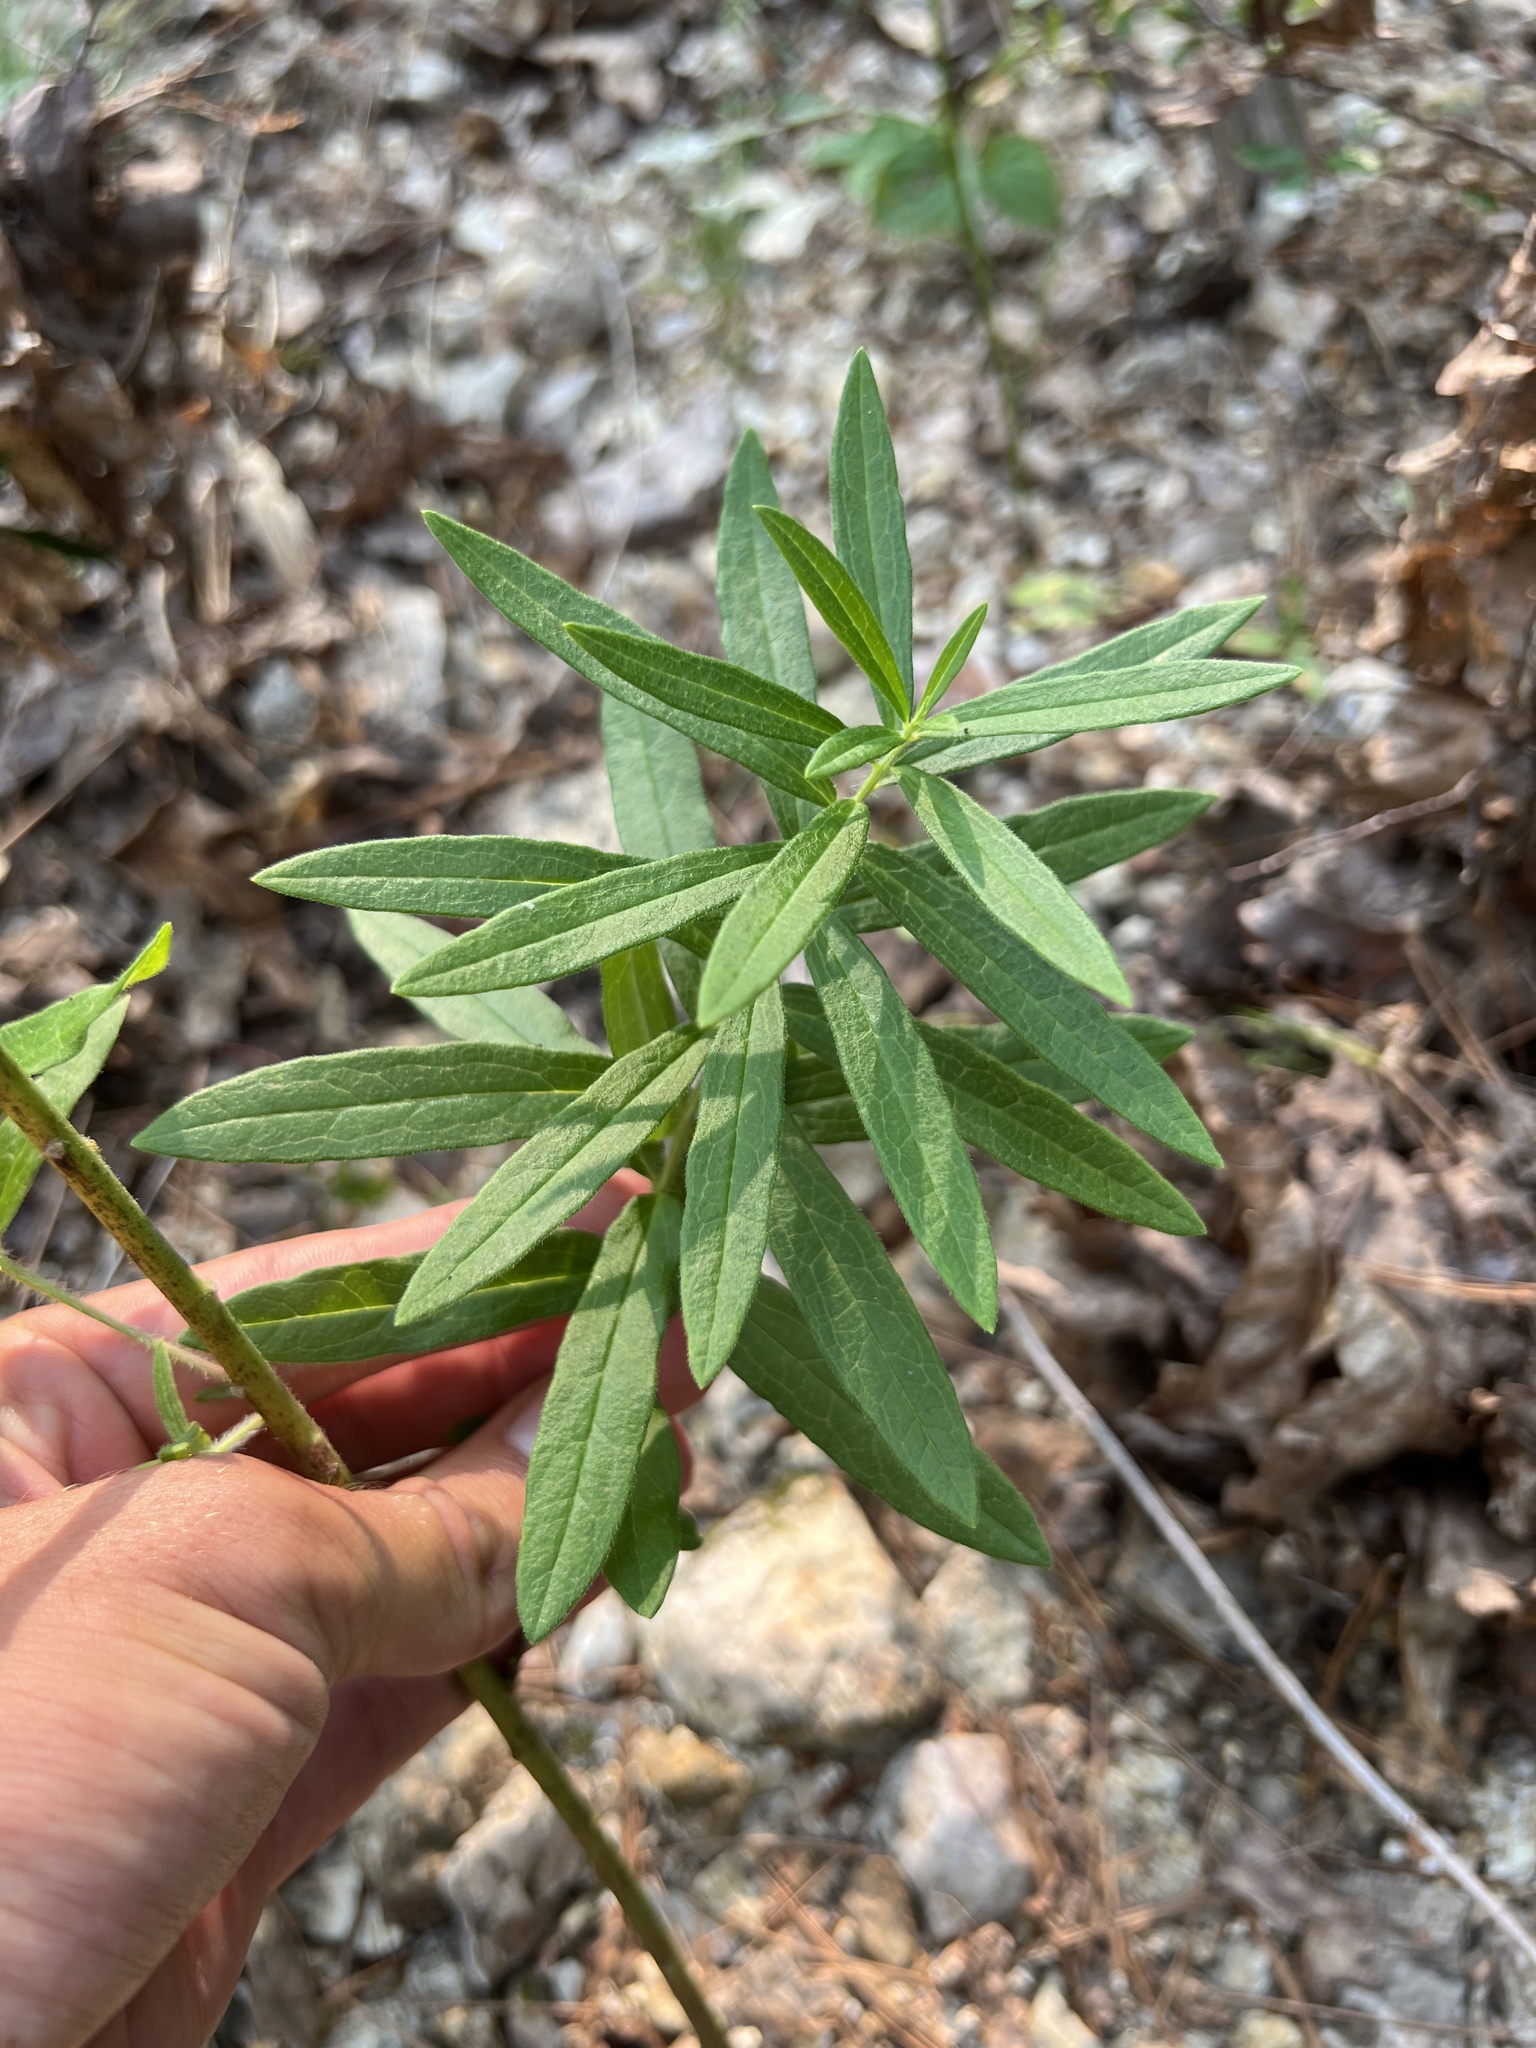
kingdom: Plantae
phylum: Tracheophyta
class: Magnoliopsida
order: Gentianales
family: Apocynaceae
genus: Asclepias
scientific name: Asclepias tuberosa
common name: Butterfly milkweed
